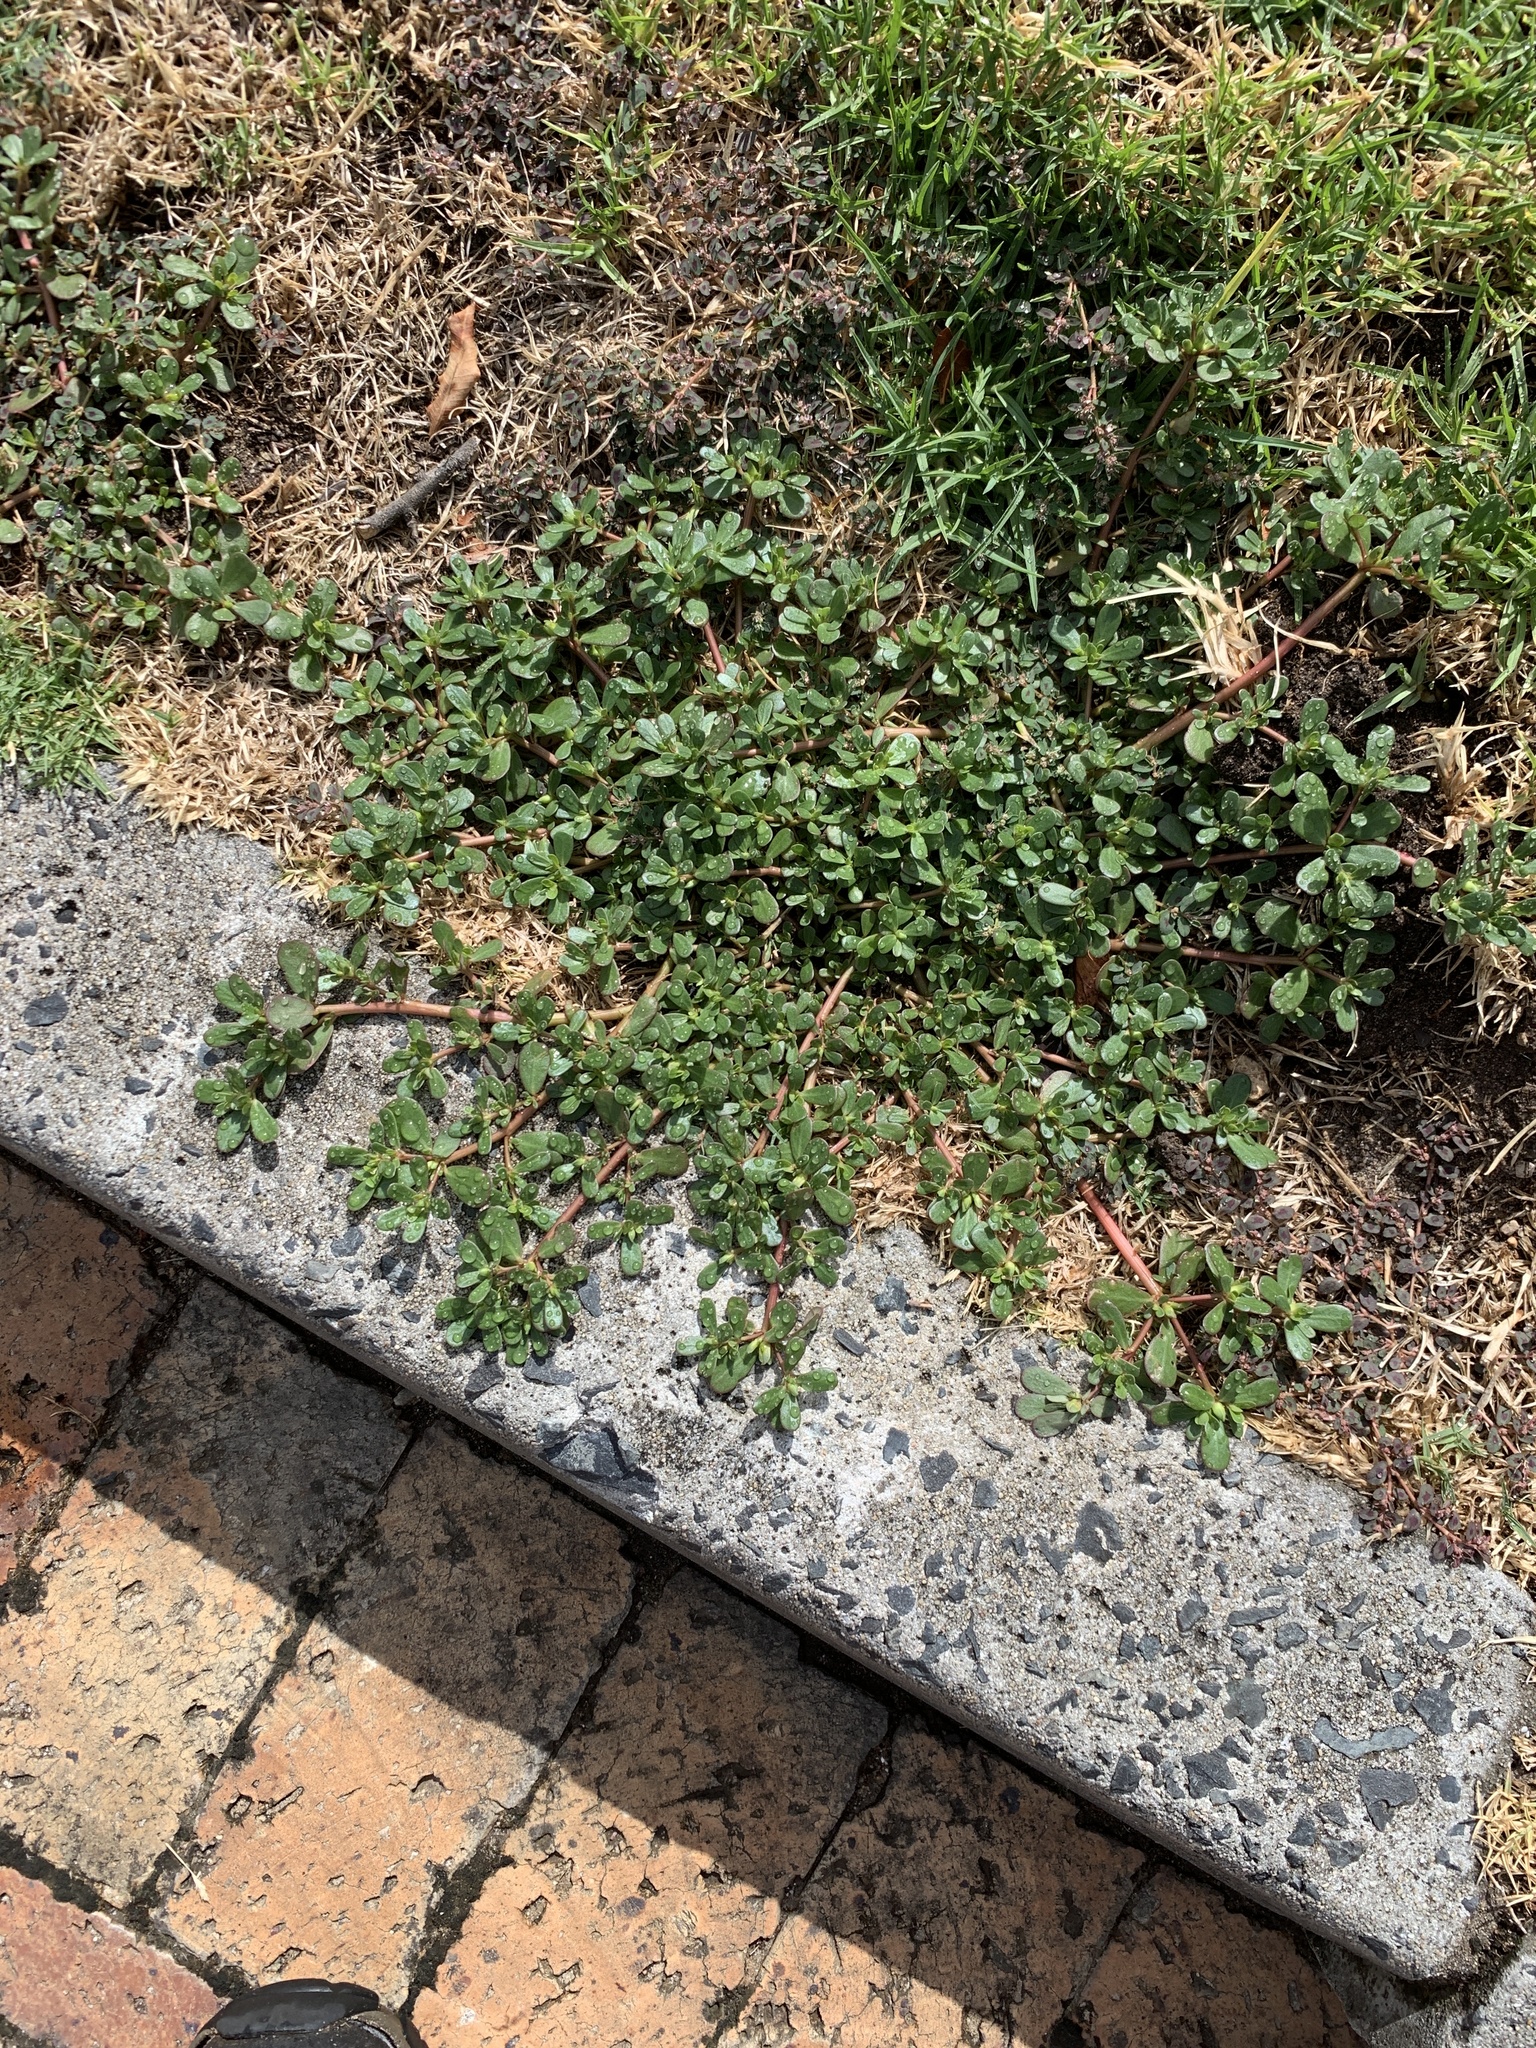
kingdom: Plantae
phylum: Tracheophyta
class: Magnoliopsida
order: Caryophyllales
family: Portulacaceae
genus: Portulaca
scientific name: Portulaca oleracea
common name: Common purslane
